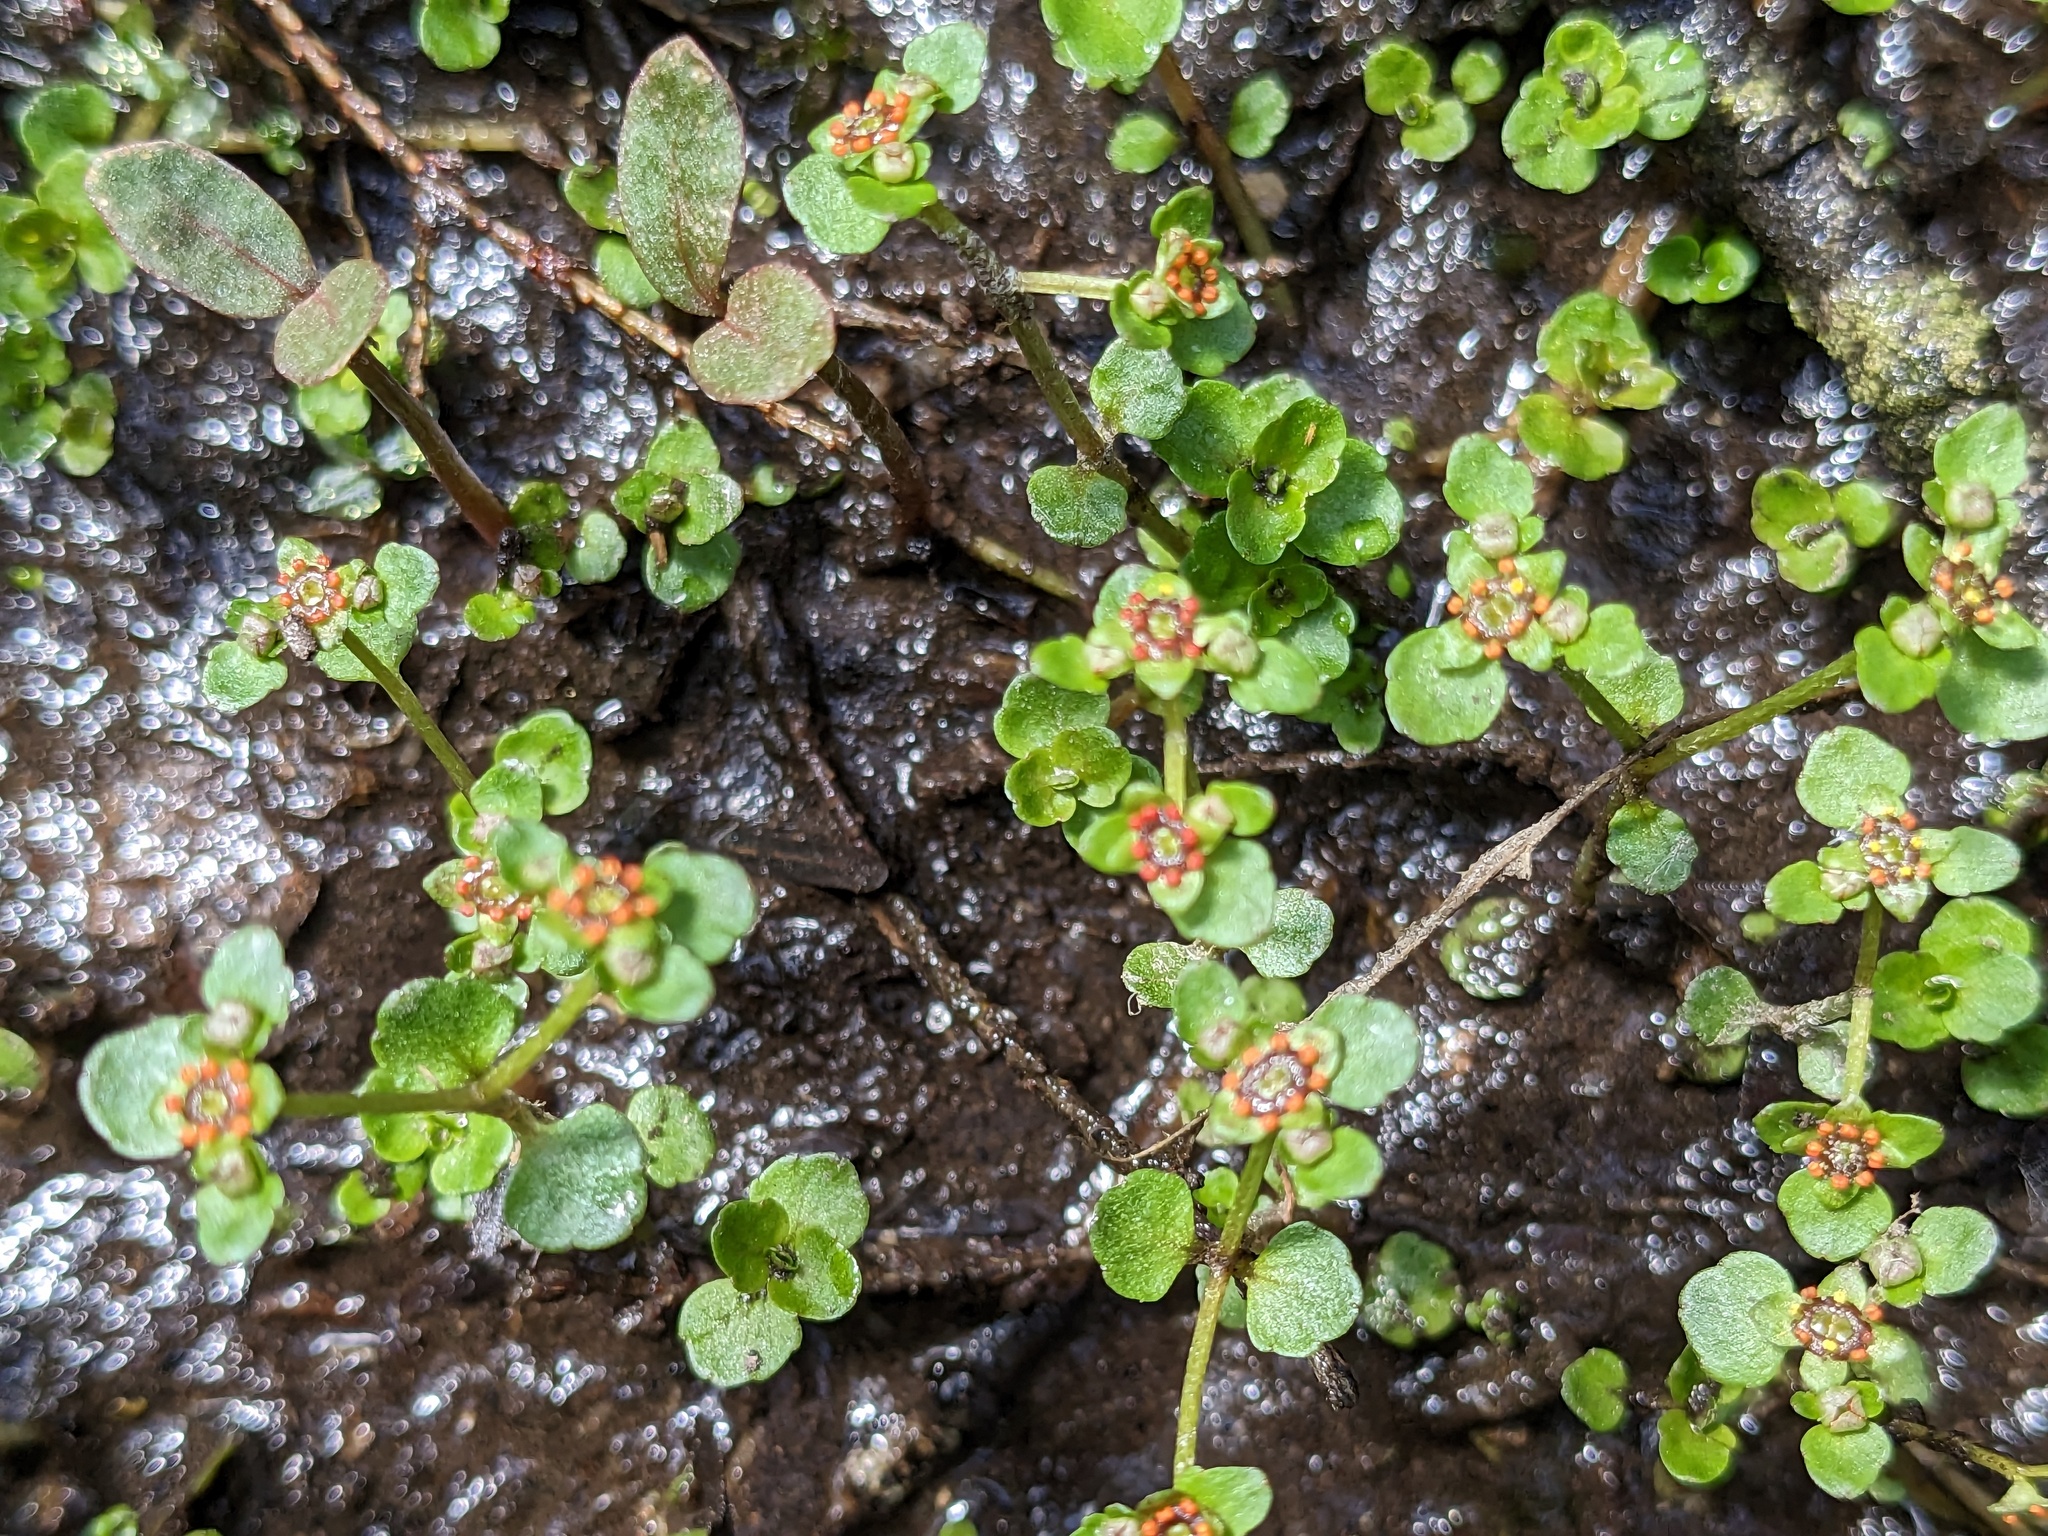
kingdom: Plantae
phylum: Tracheophyta
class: Magnoliopsida
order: Saxifragales
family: Saxifragaceae
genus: Chrysosplenium
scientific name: Chrysosplenium americanum
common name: American golden-saxifrage
